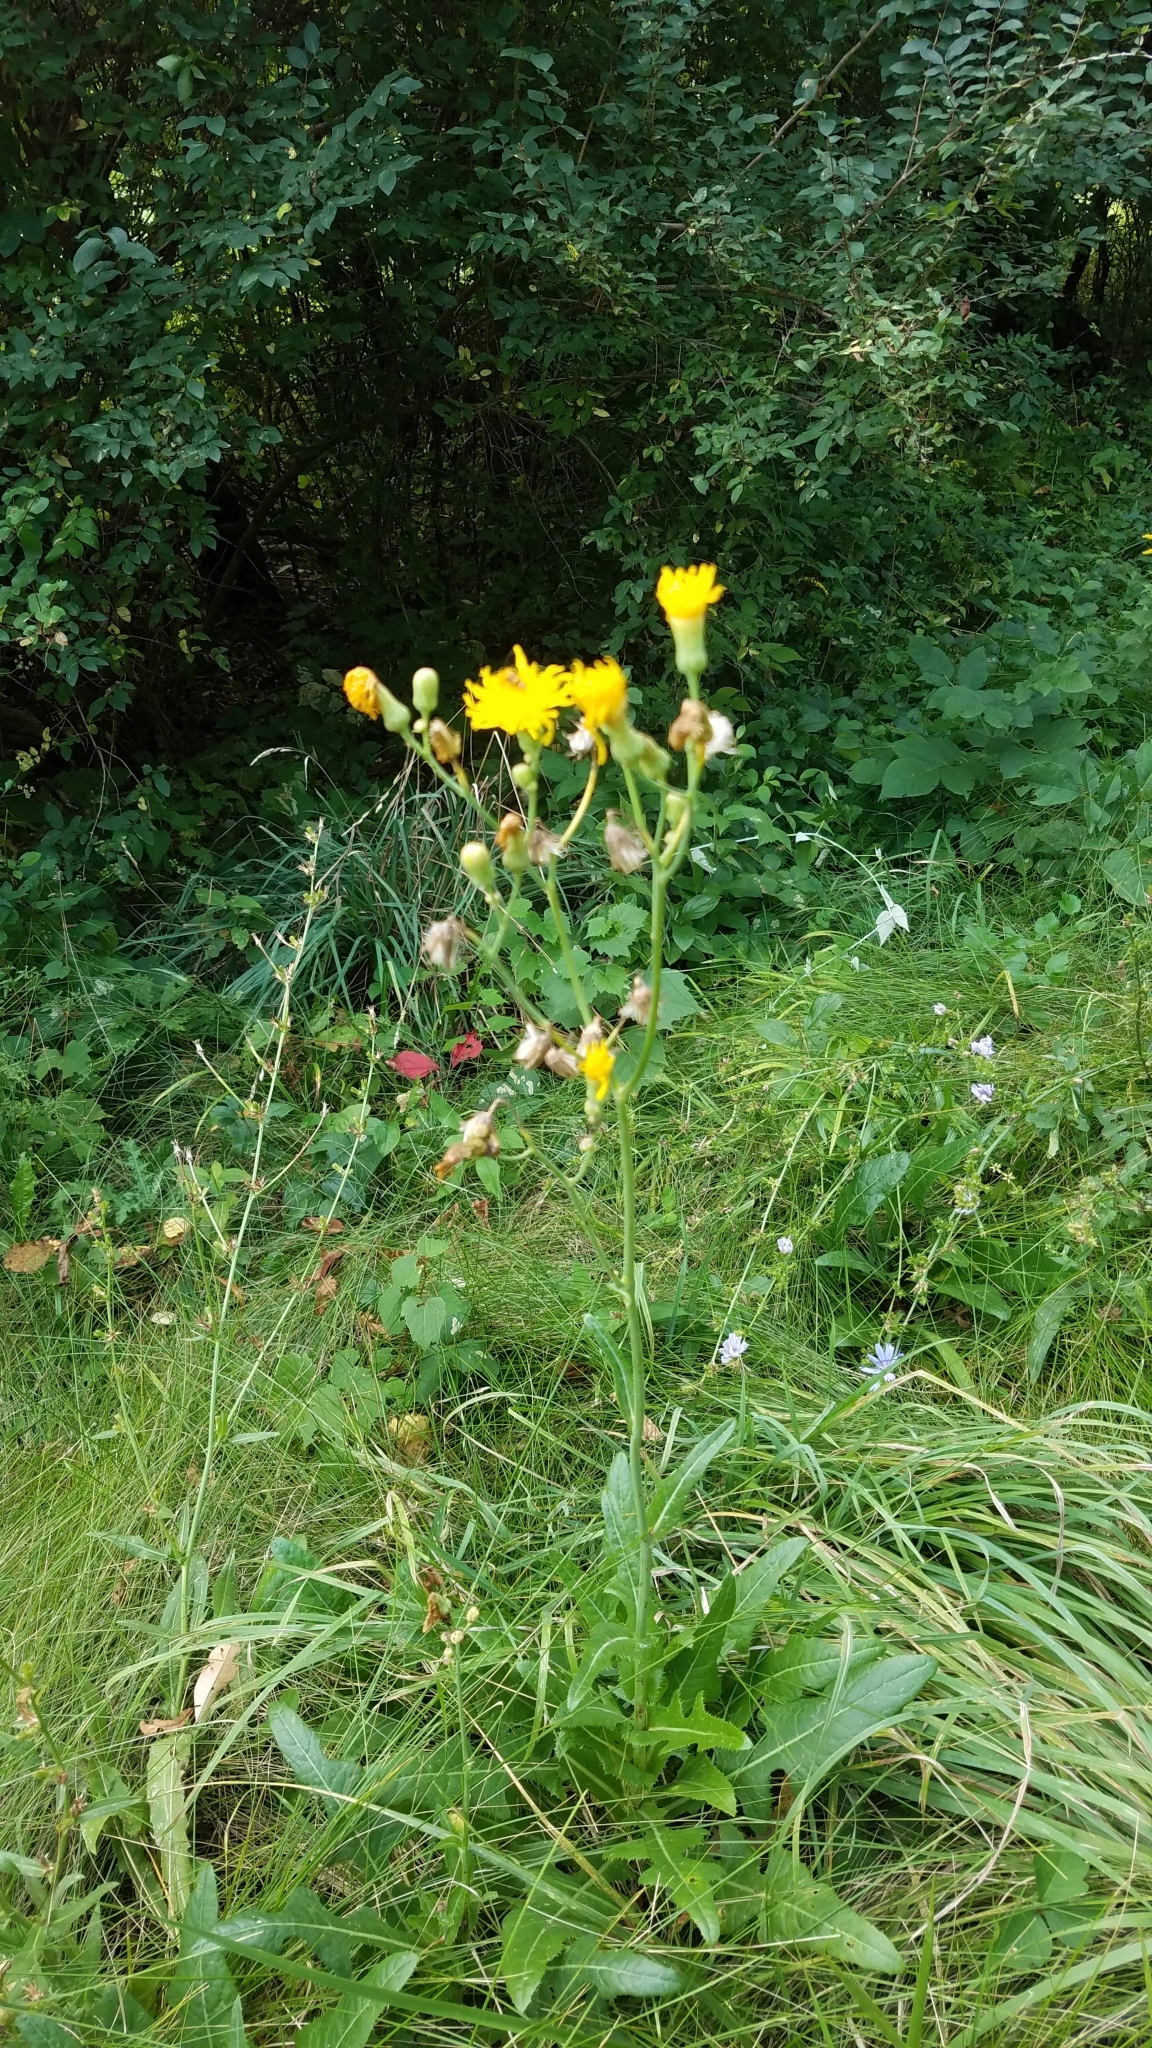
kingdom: Plantae
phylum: Tracheophyta
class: Magnoliopsida
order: Asterales
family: Asteraceae
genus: Sonchus
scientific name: Sonchus arvensis
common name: Perennial sow-thistle
